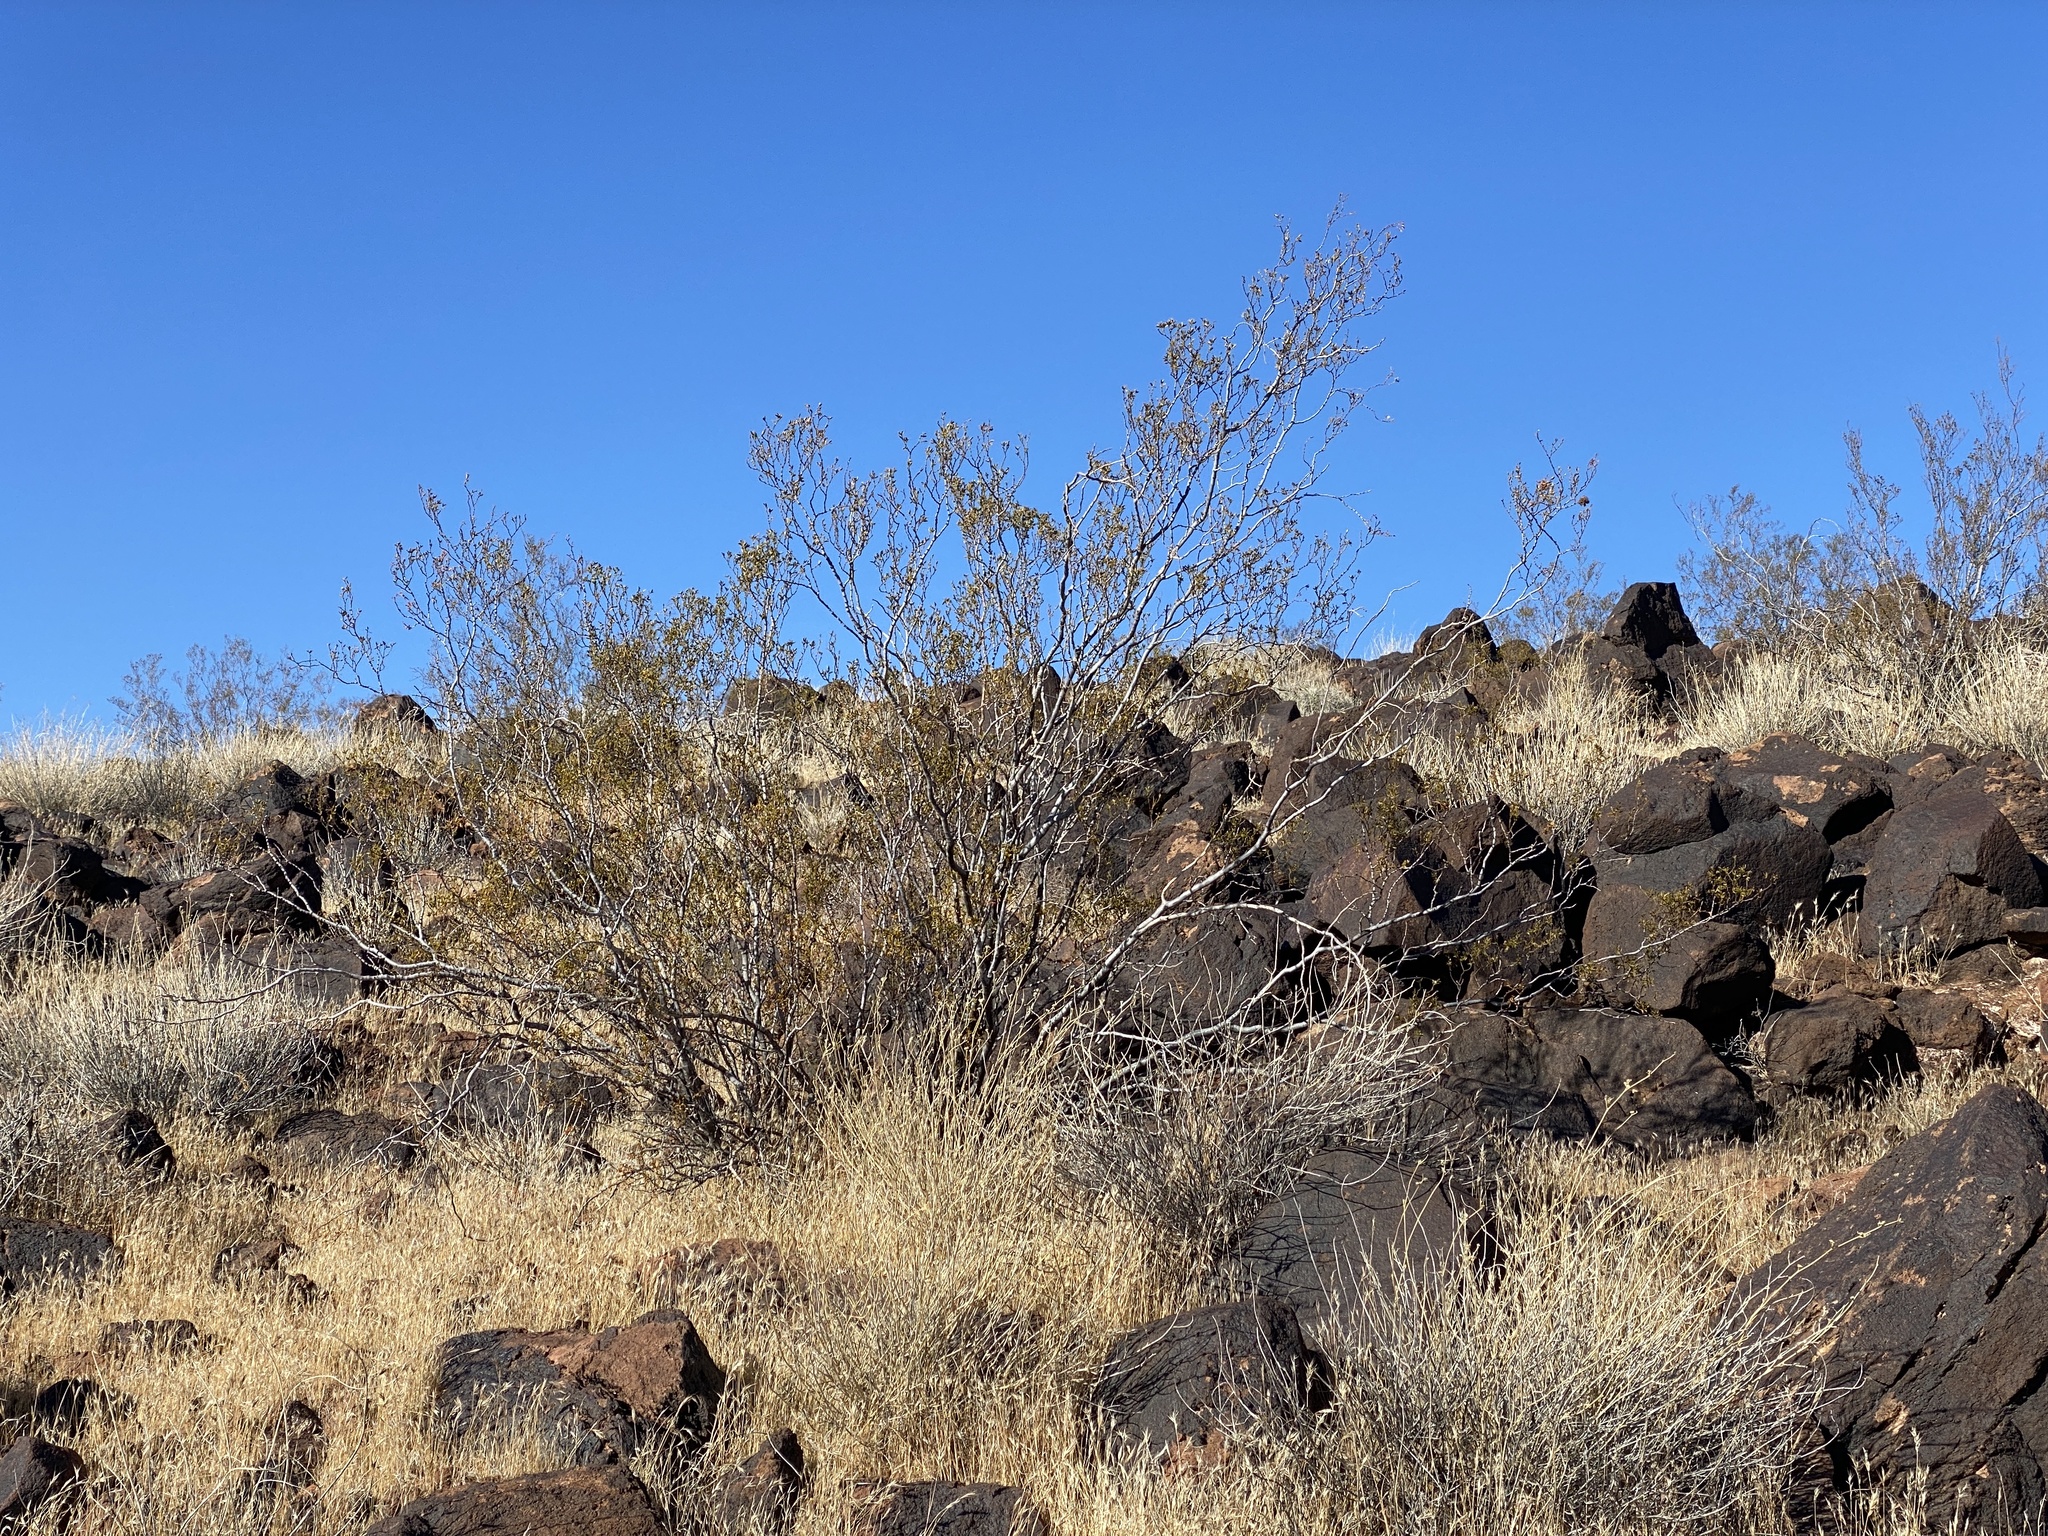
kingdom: Plantae
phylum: Tracheophyta
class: Magnoliopsida
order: Zygophyllales
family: Zygophyllaceae
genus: Larrea
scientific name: Larrea tridentata
